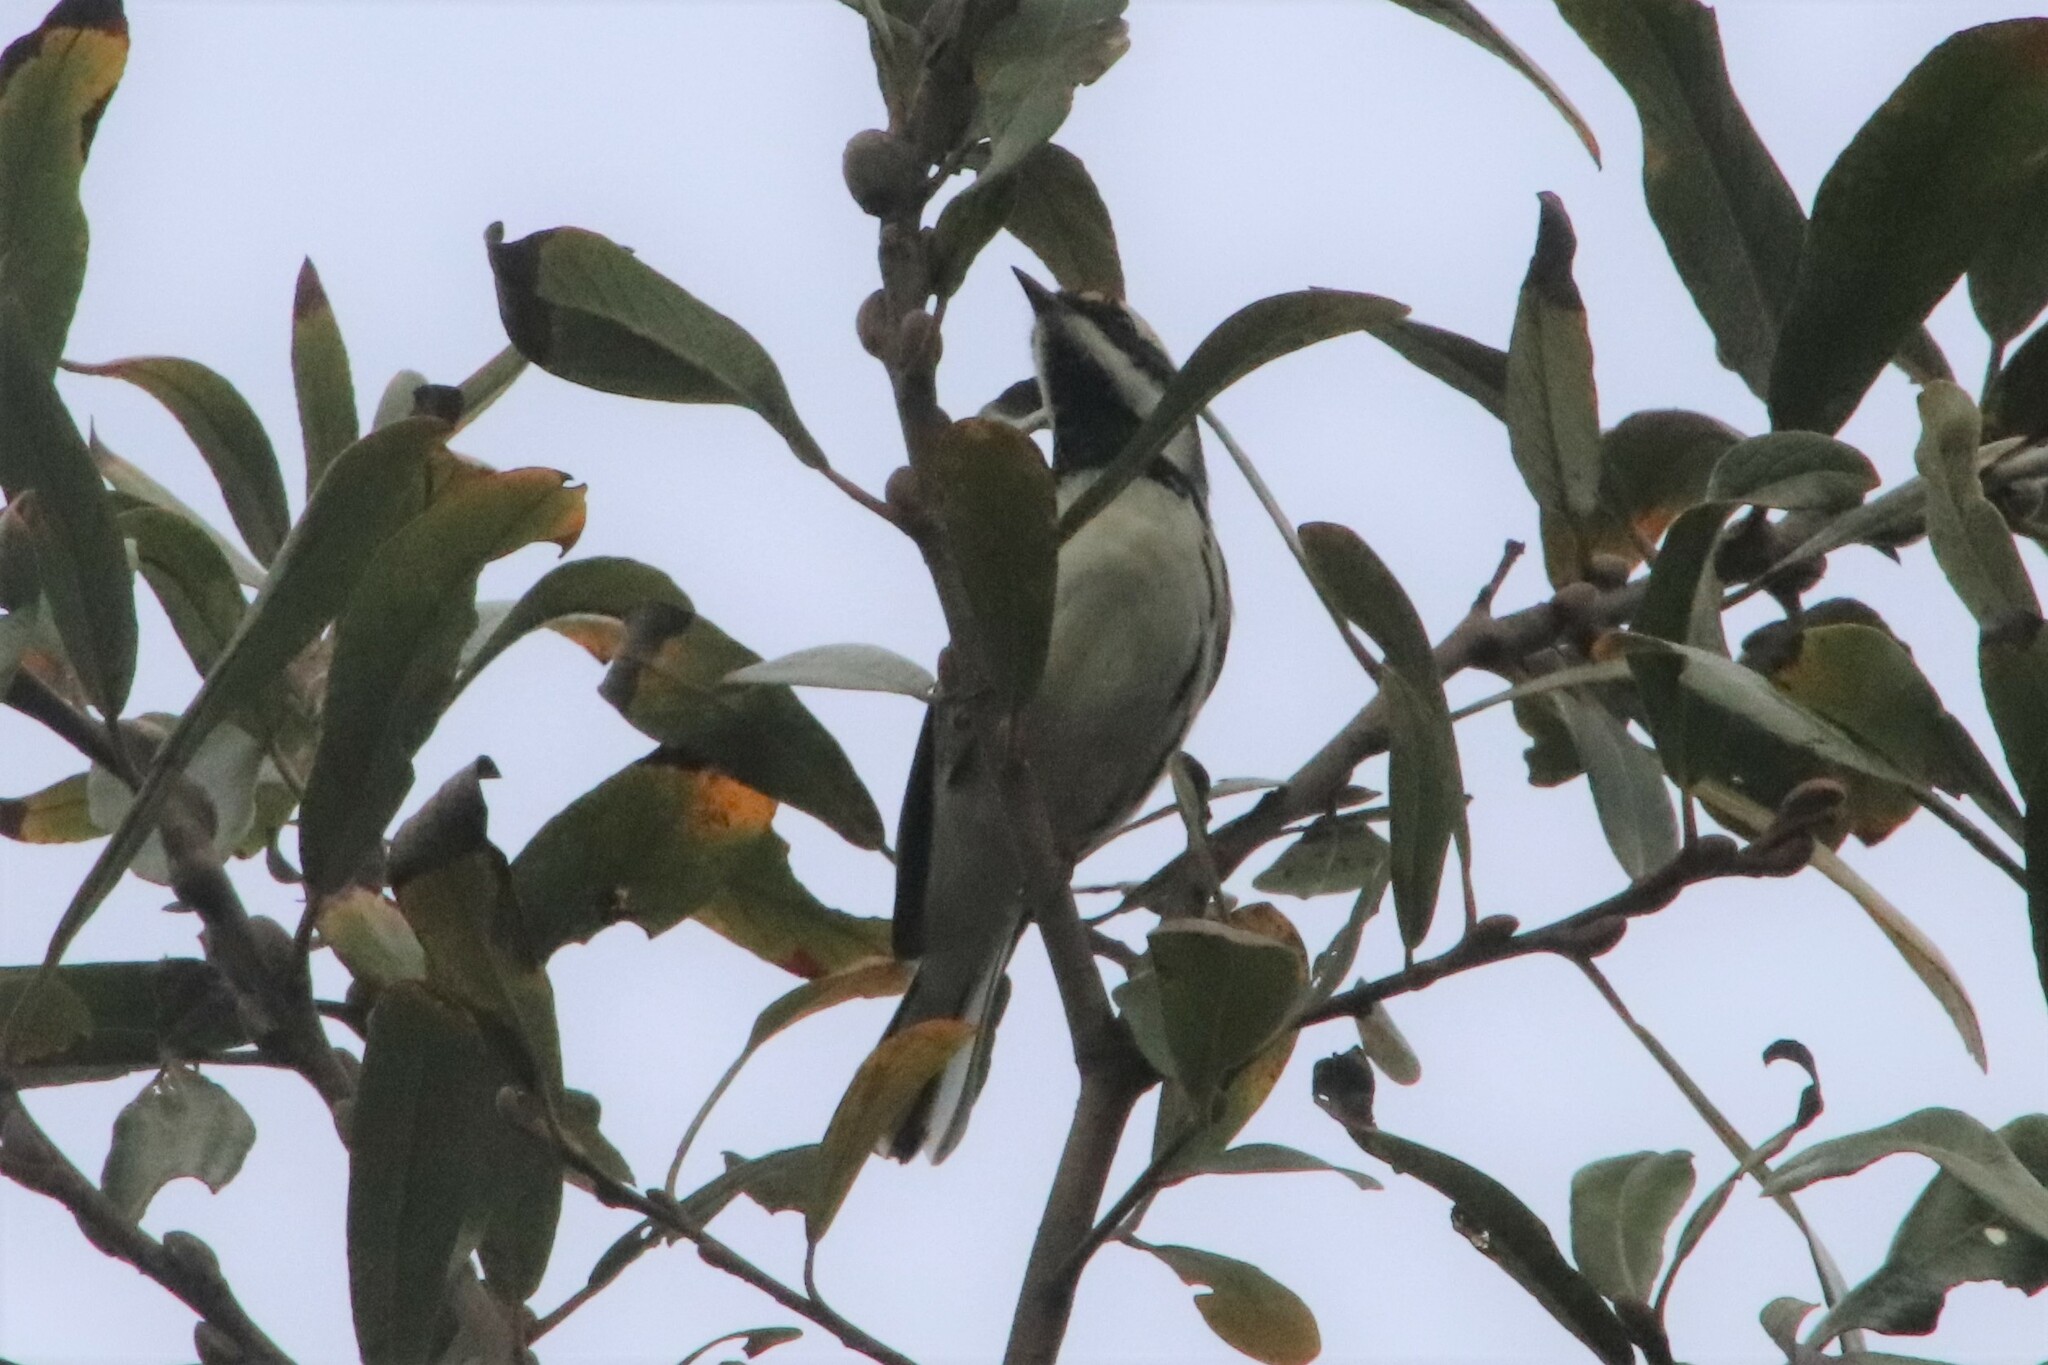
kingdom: Animalia
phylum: Chordata
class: Aves
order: Passeriformes
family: Parulidae
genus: Setophaga
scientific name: Setophaga nigrescens
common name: Black-throated gray warbler
